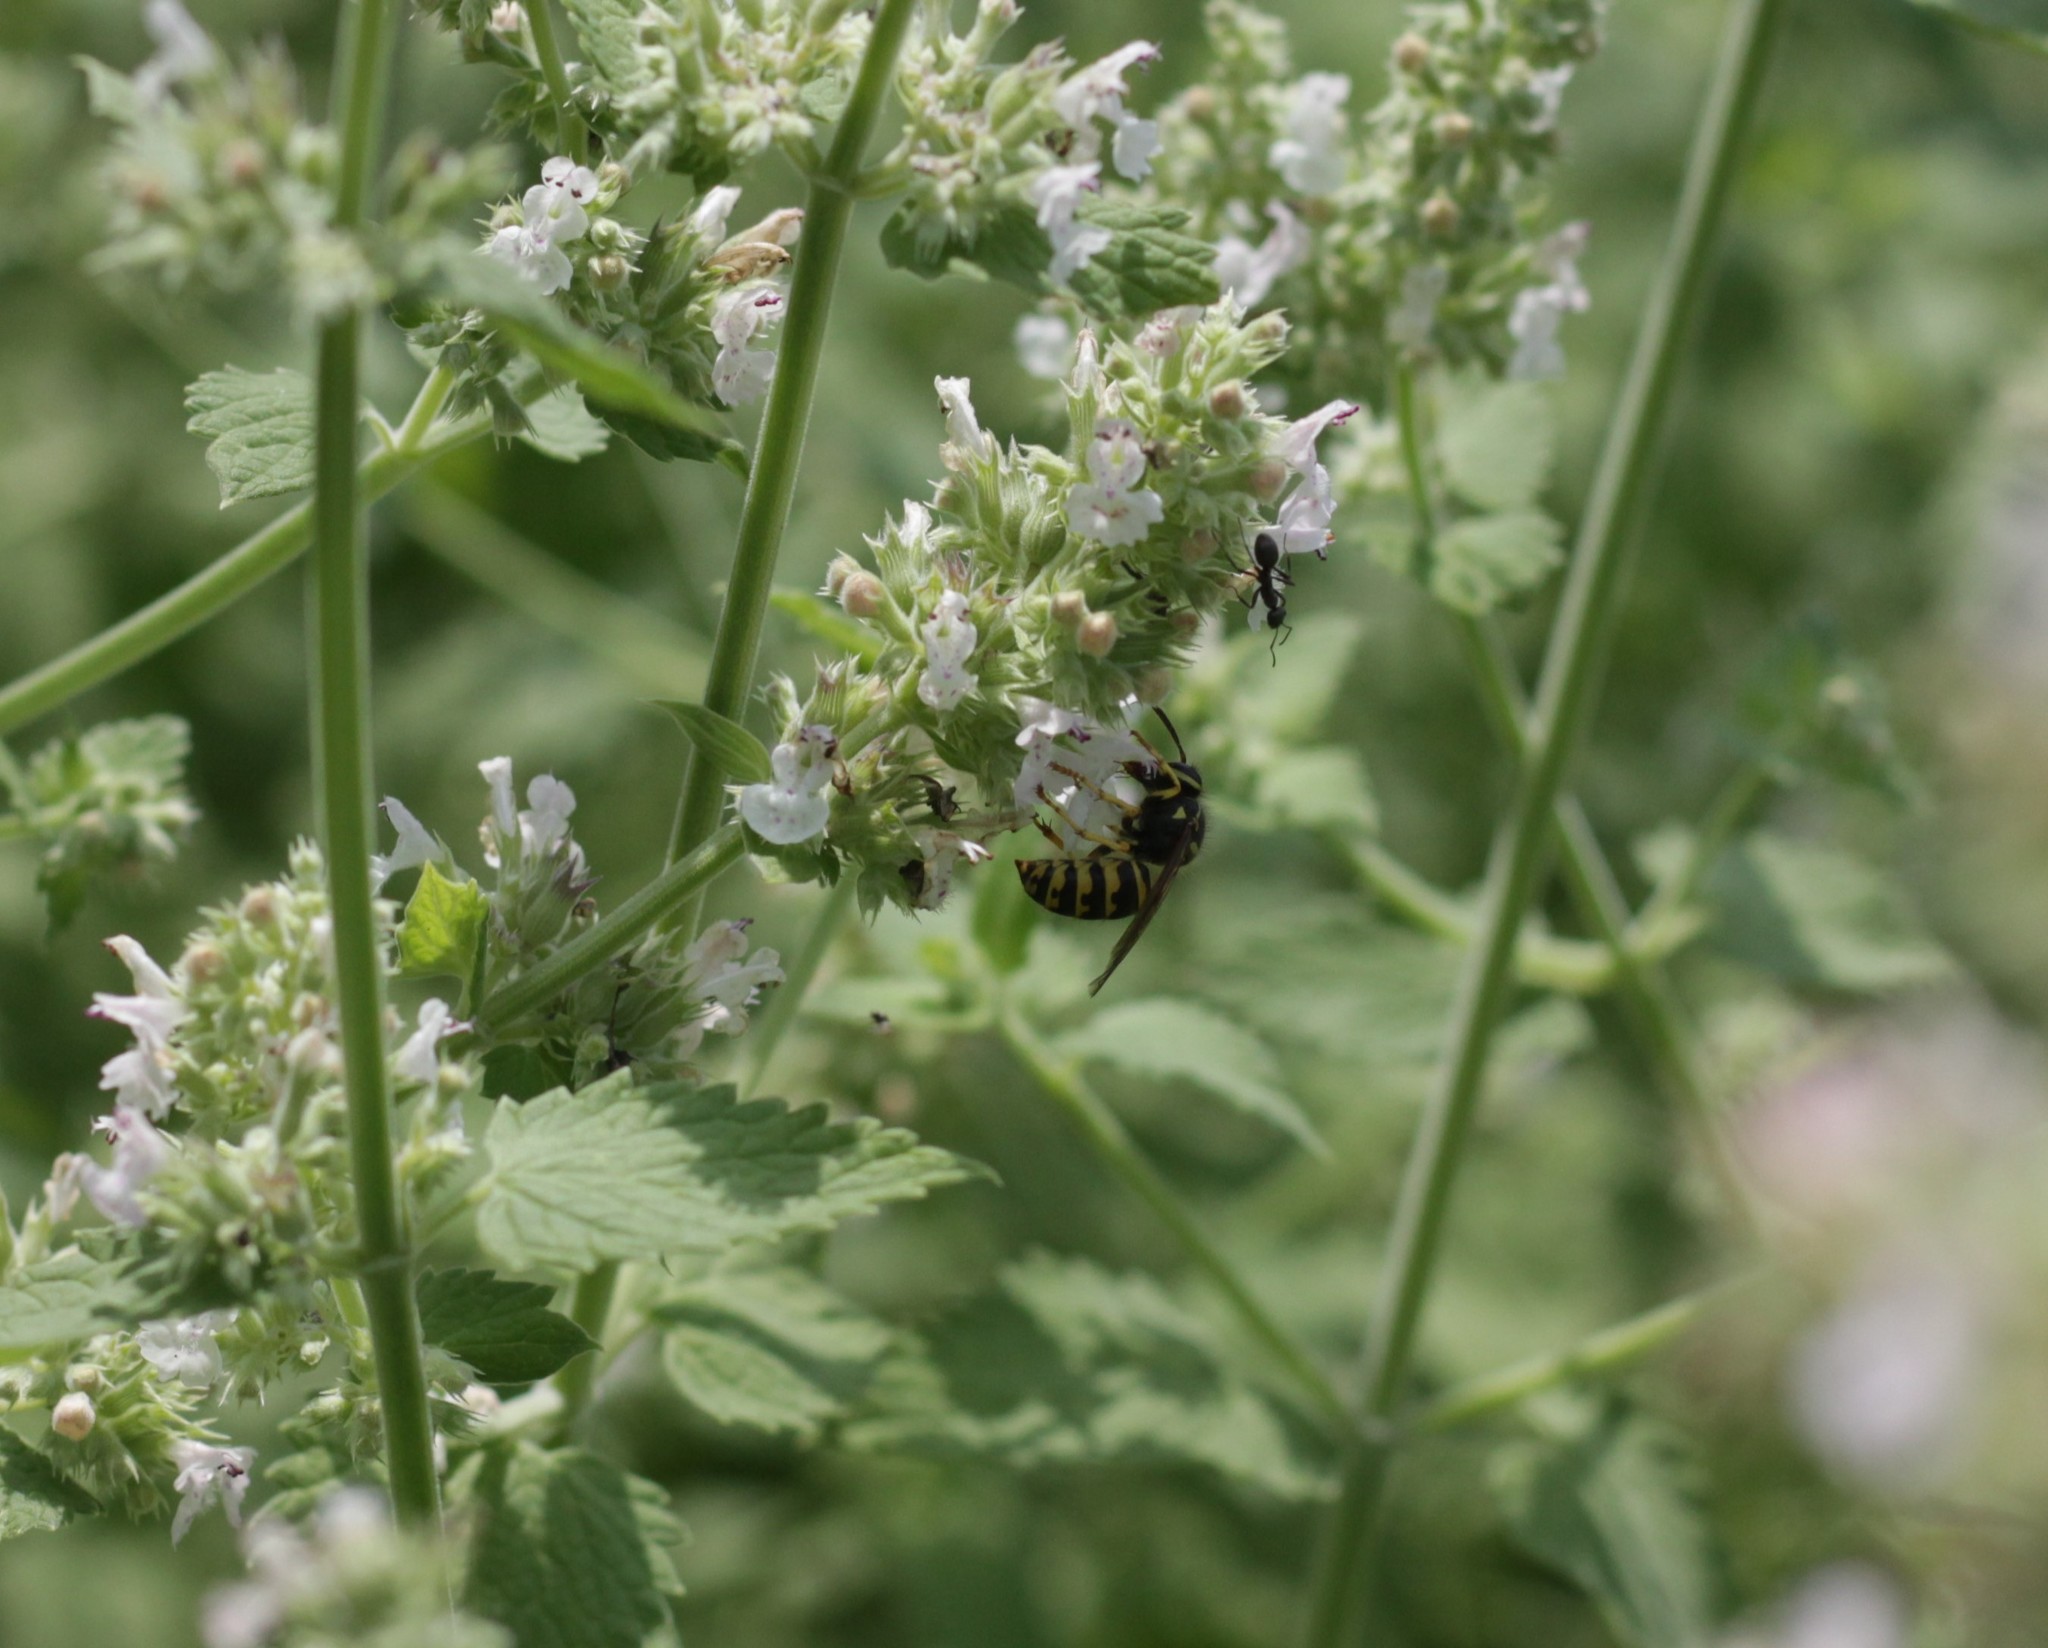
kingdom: Animalia
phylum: Arthropoda
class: Insecta
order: Hymenoptera
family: Vespidae
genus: Dolichovespula
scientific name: Dolichovespula arenaria
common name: Aerial yellowjacket
